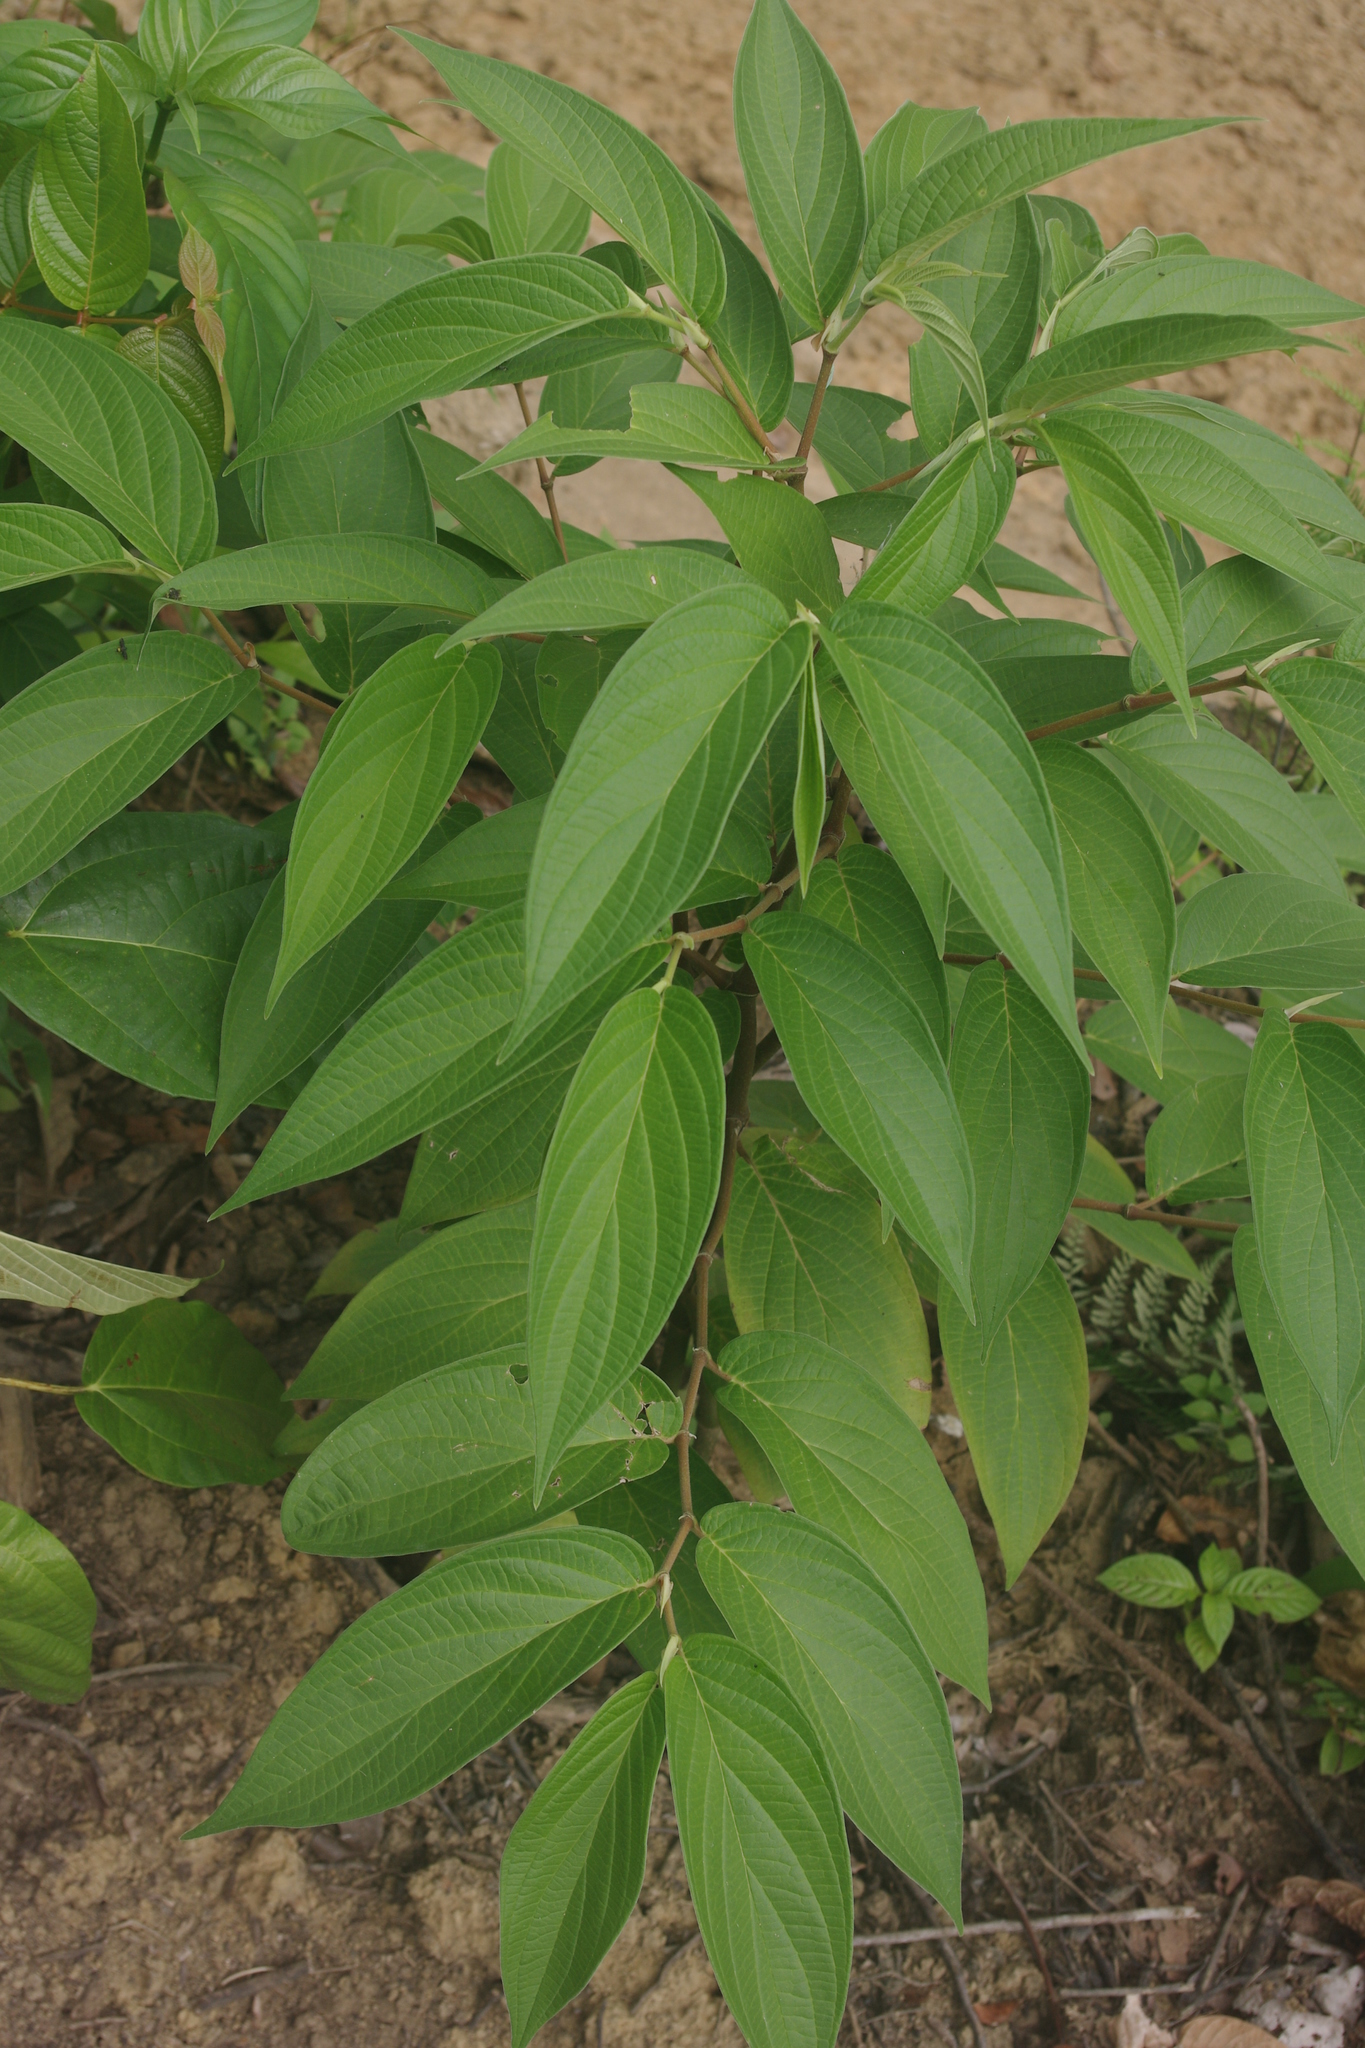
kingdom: Plantae
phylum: Tracheophyta
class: Magnoliopsida
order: Piperales
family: Piperaceae
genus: Piper
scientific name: Piper aduncum
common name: Spiked pepper
